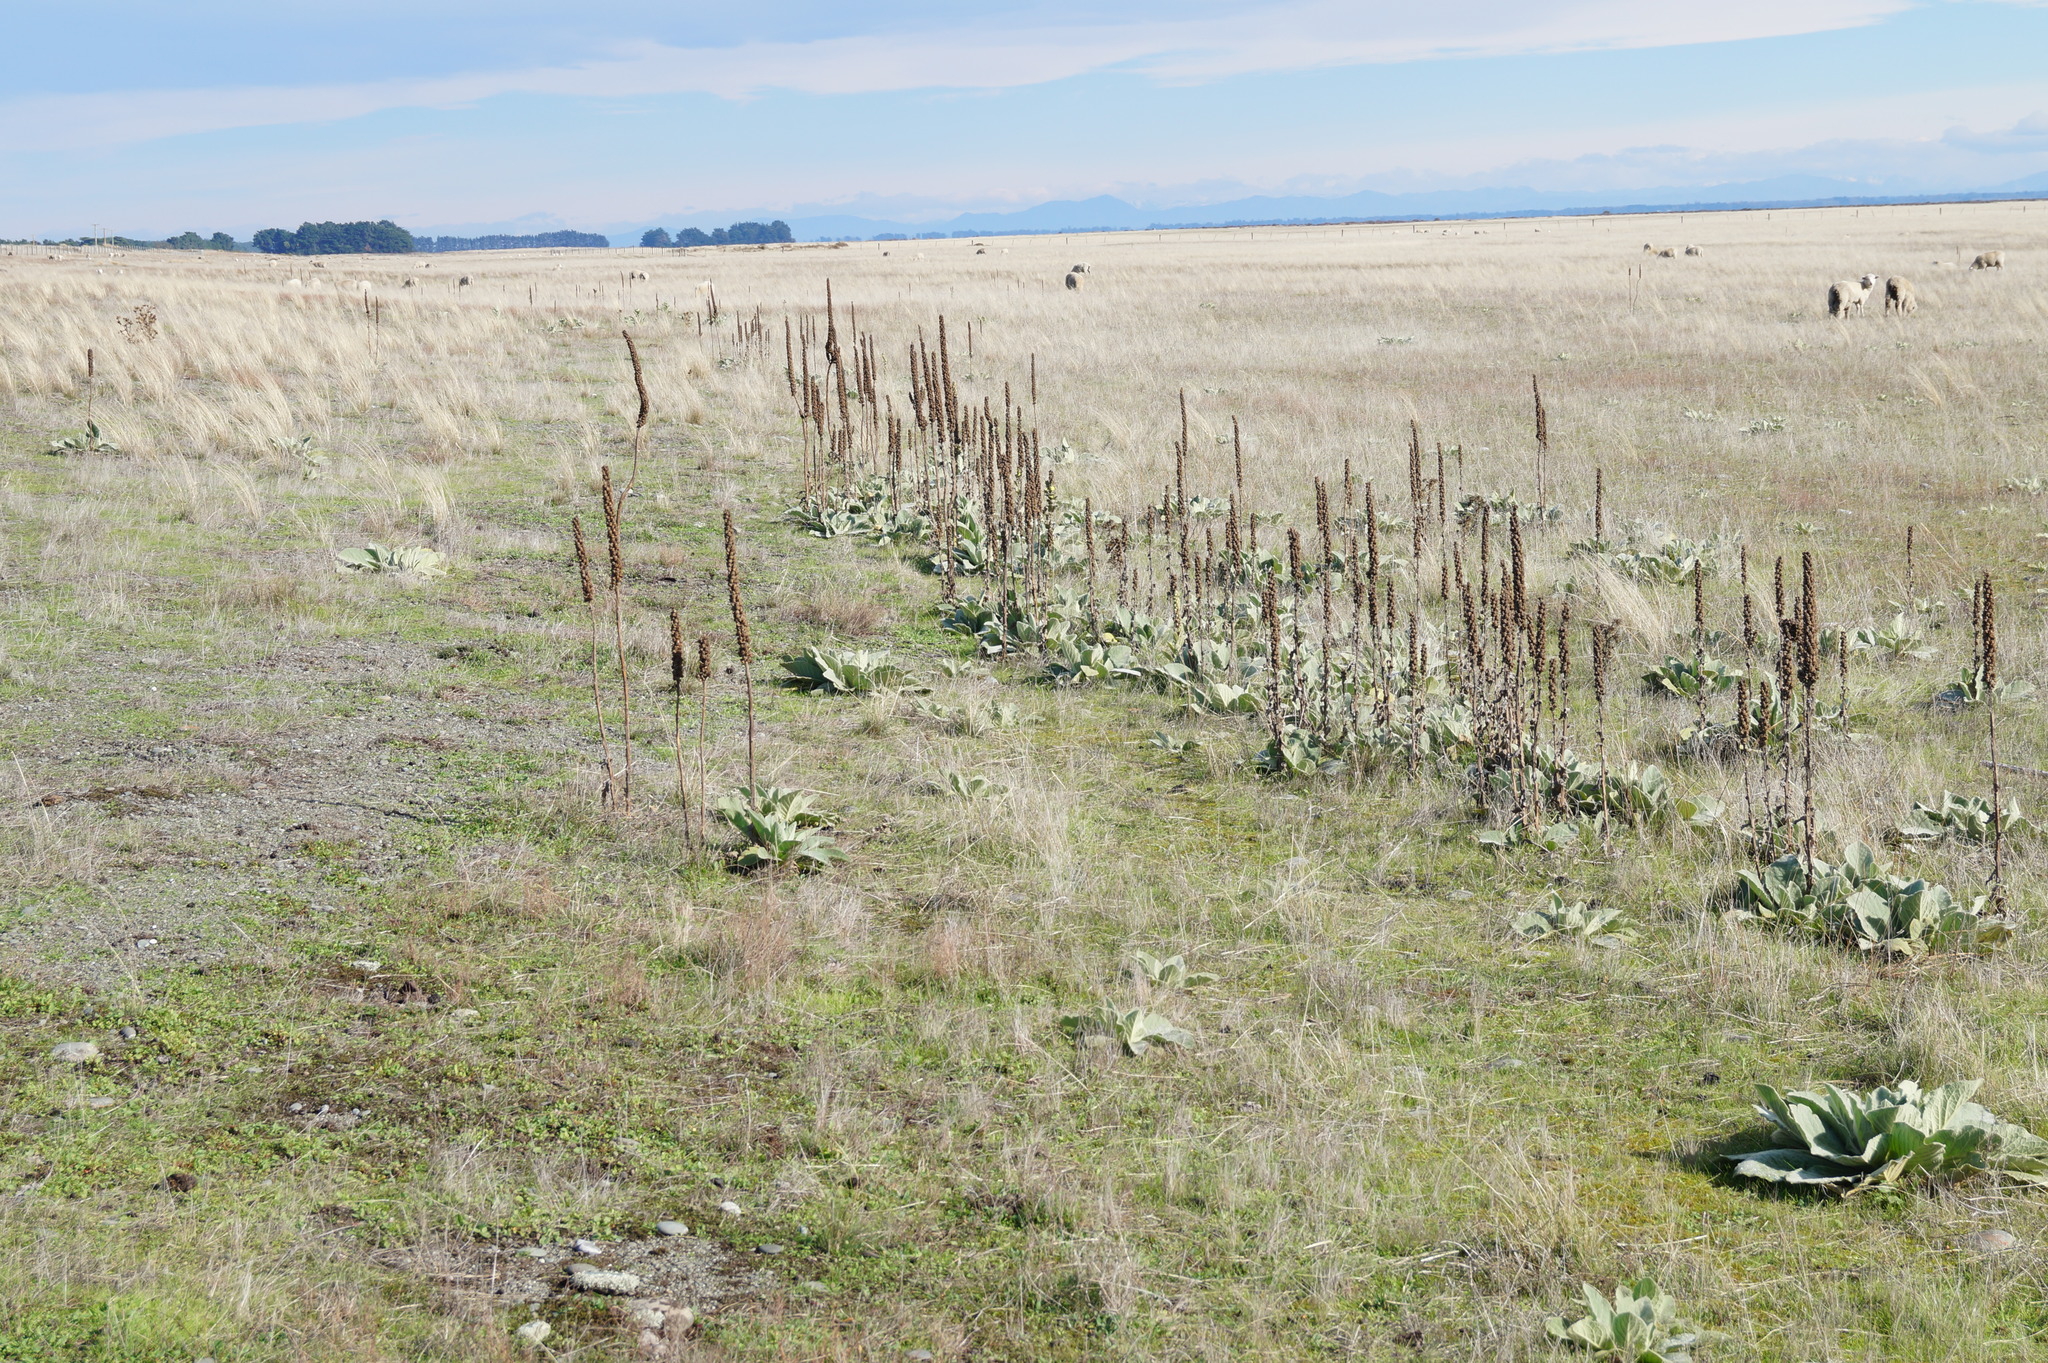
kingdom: Plantae
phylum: Tracheophyta
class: Magnoliopsida
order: Lamiales
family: Scrophulariaceae
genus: Verbascum
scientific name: Verbascum thapsus
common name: Common mullein
